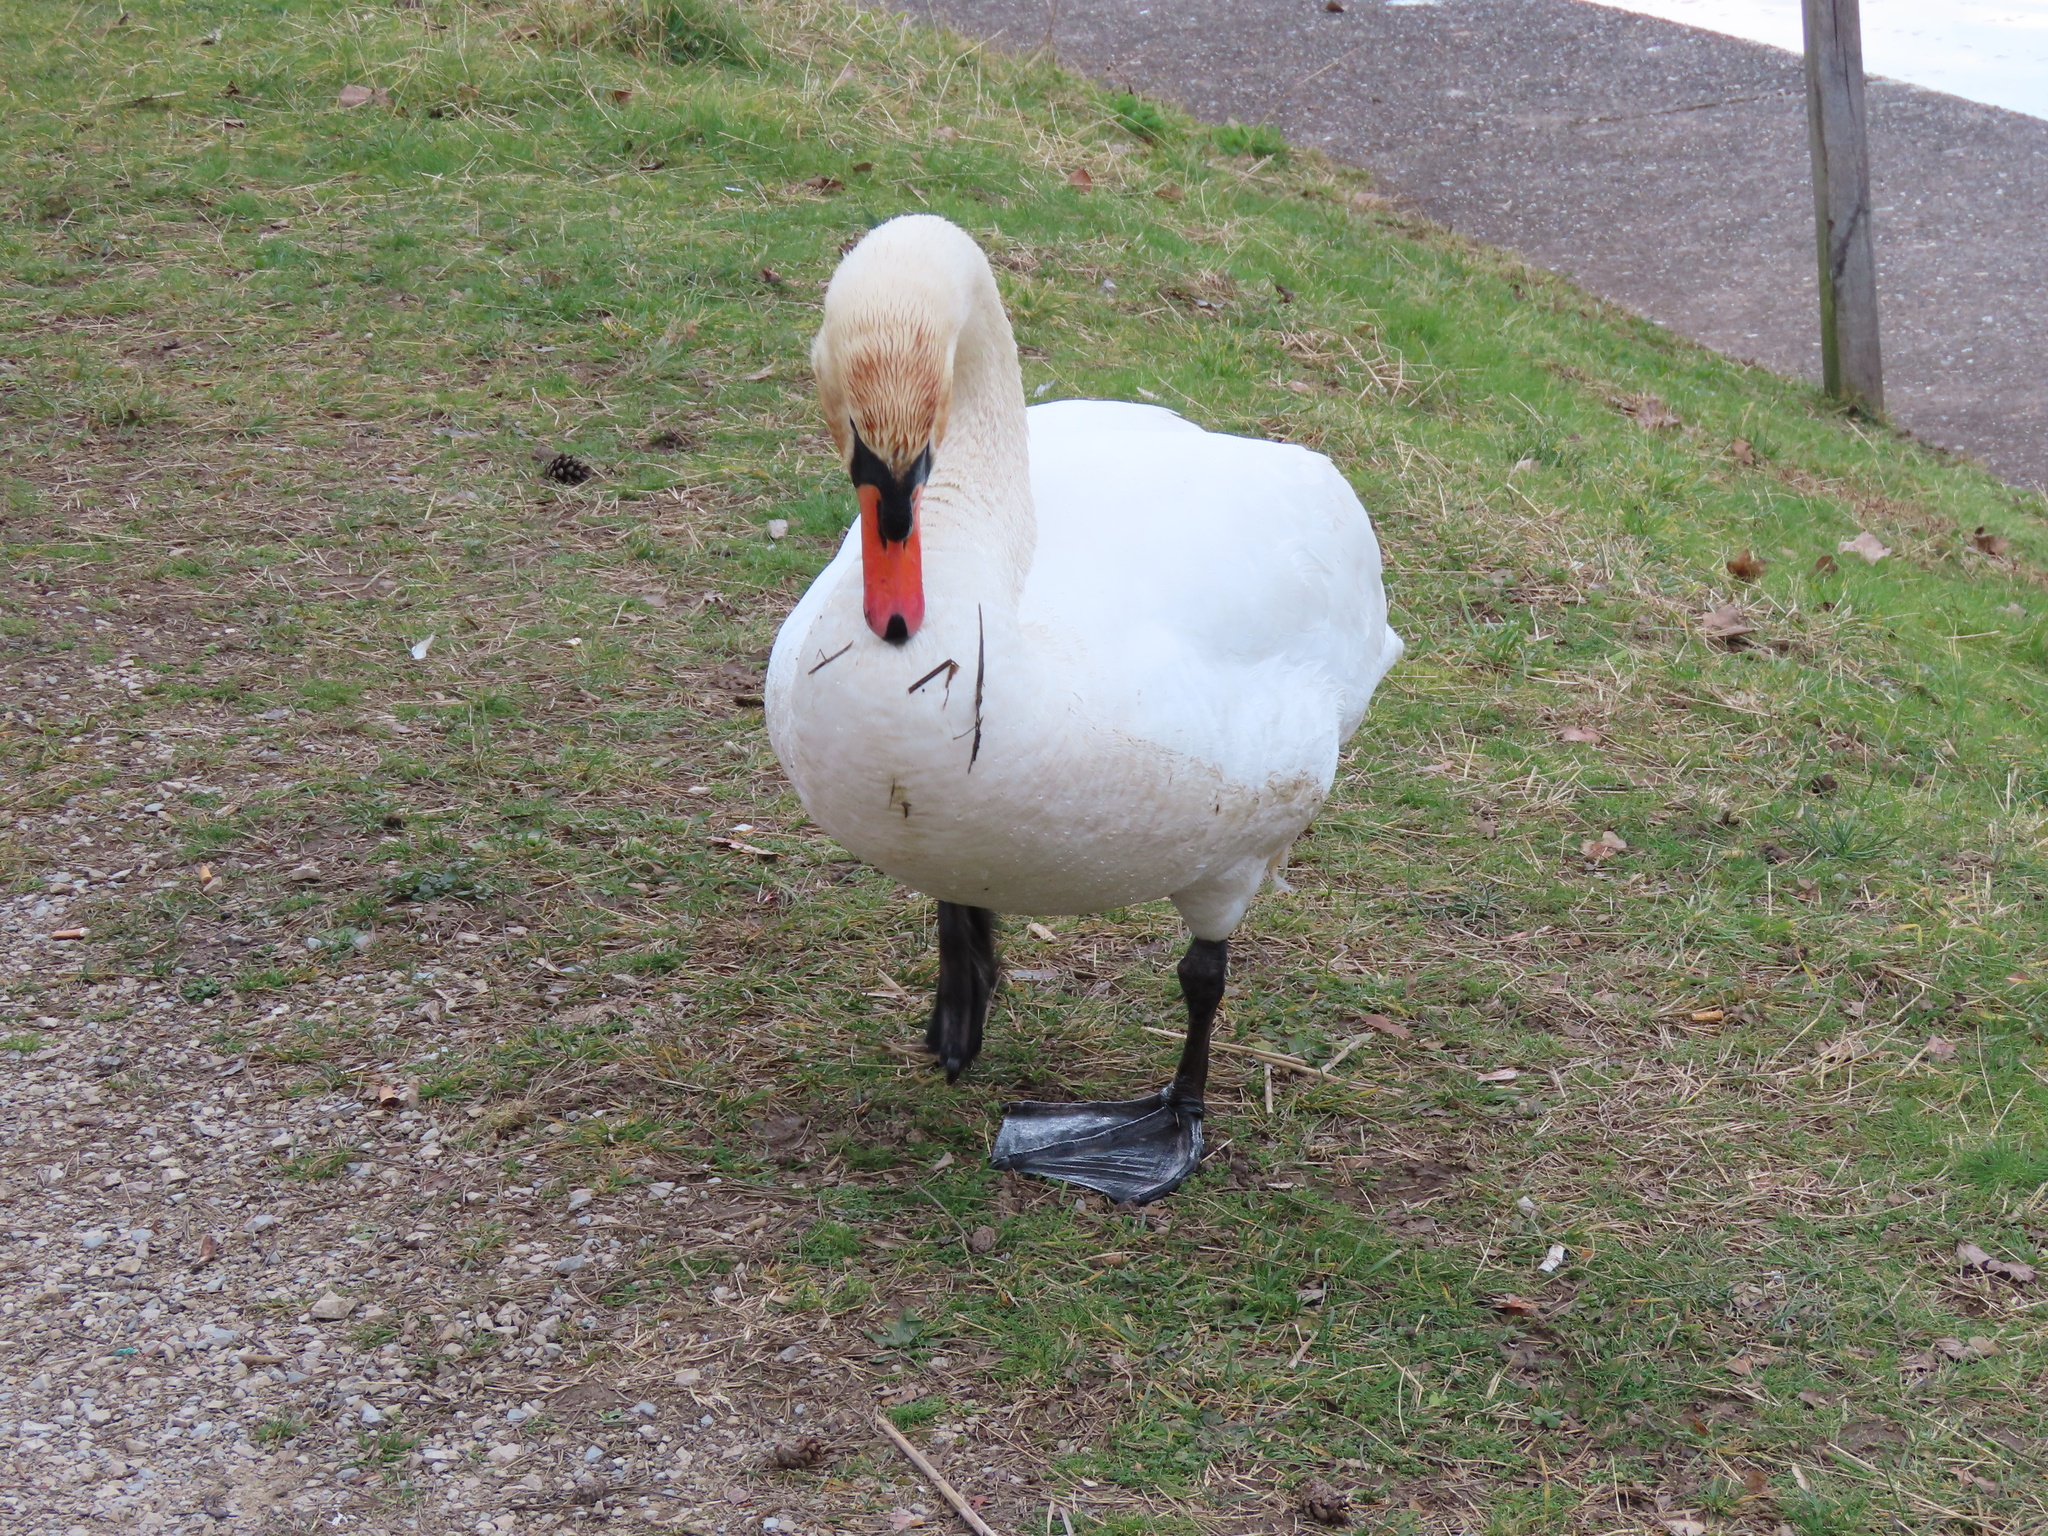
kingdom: Animalia
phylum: Chordata
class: Aves
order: Anseriformes
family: Anatidae
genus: Cygnus
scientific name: Cygnus olor
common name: Mute swan
